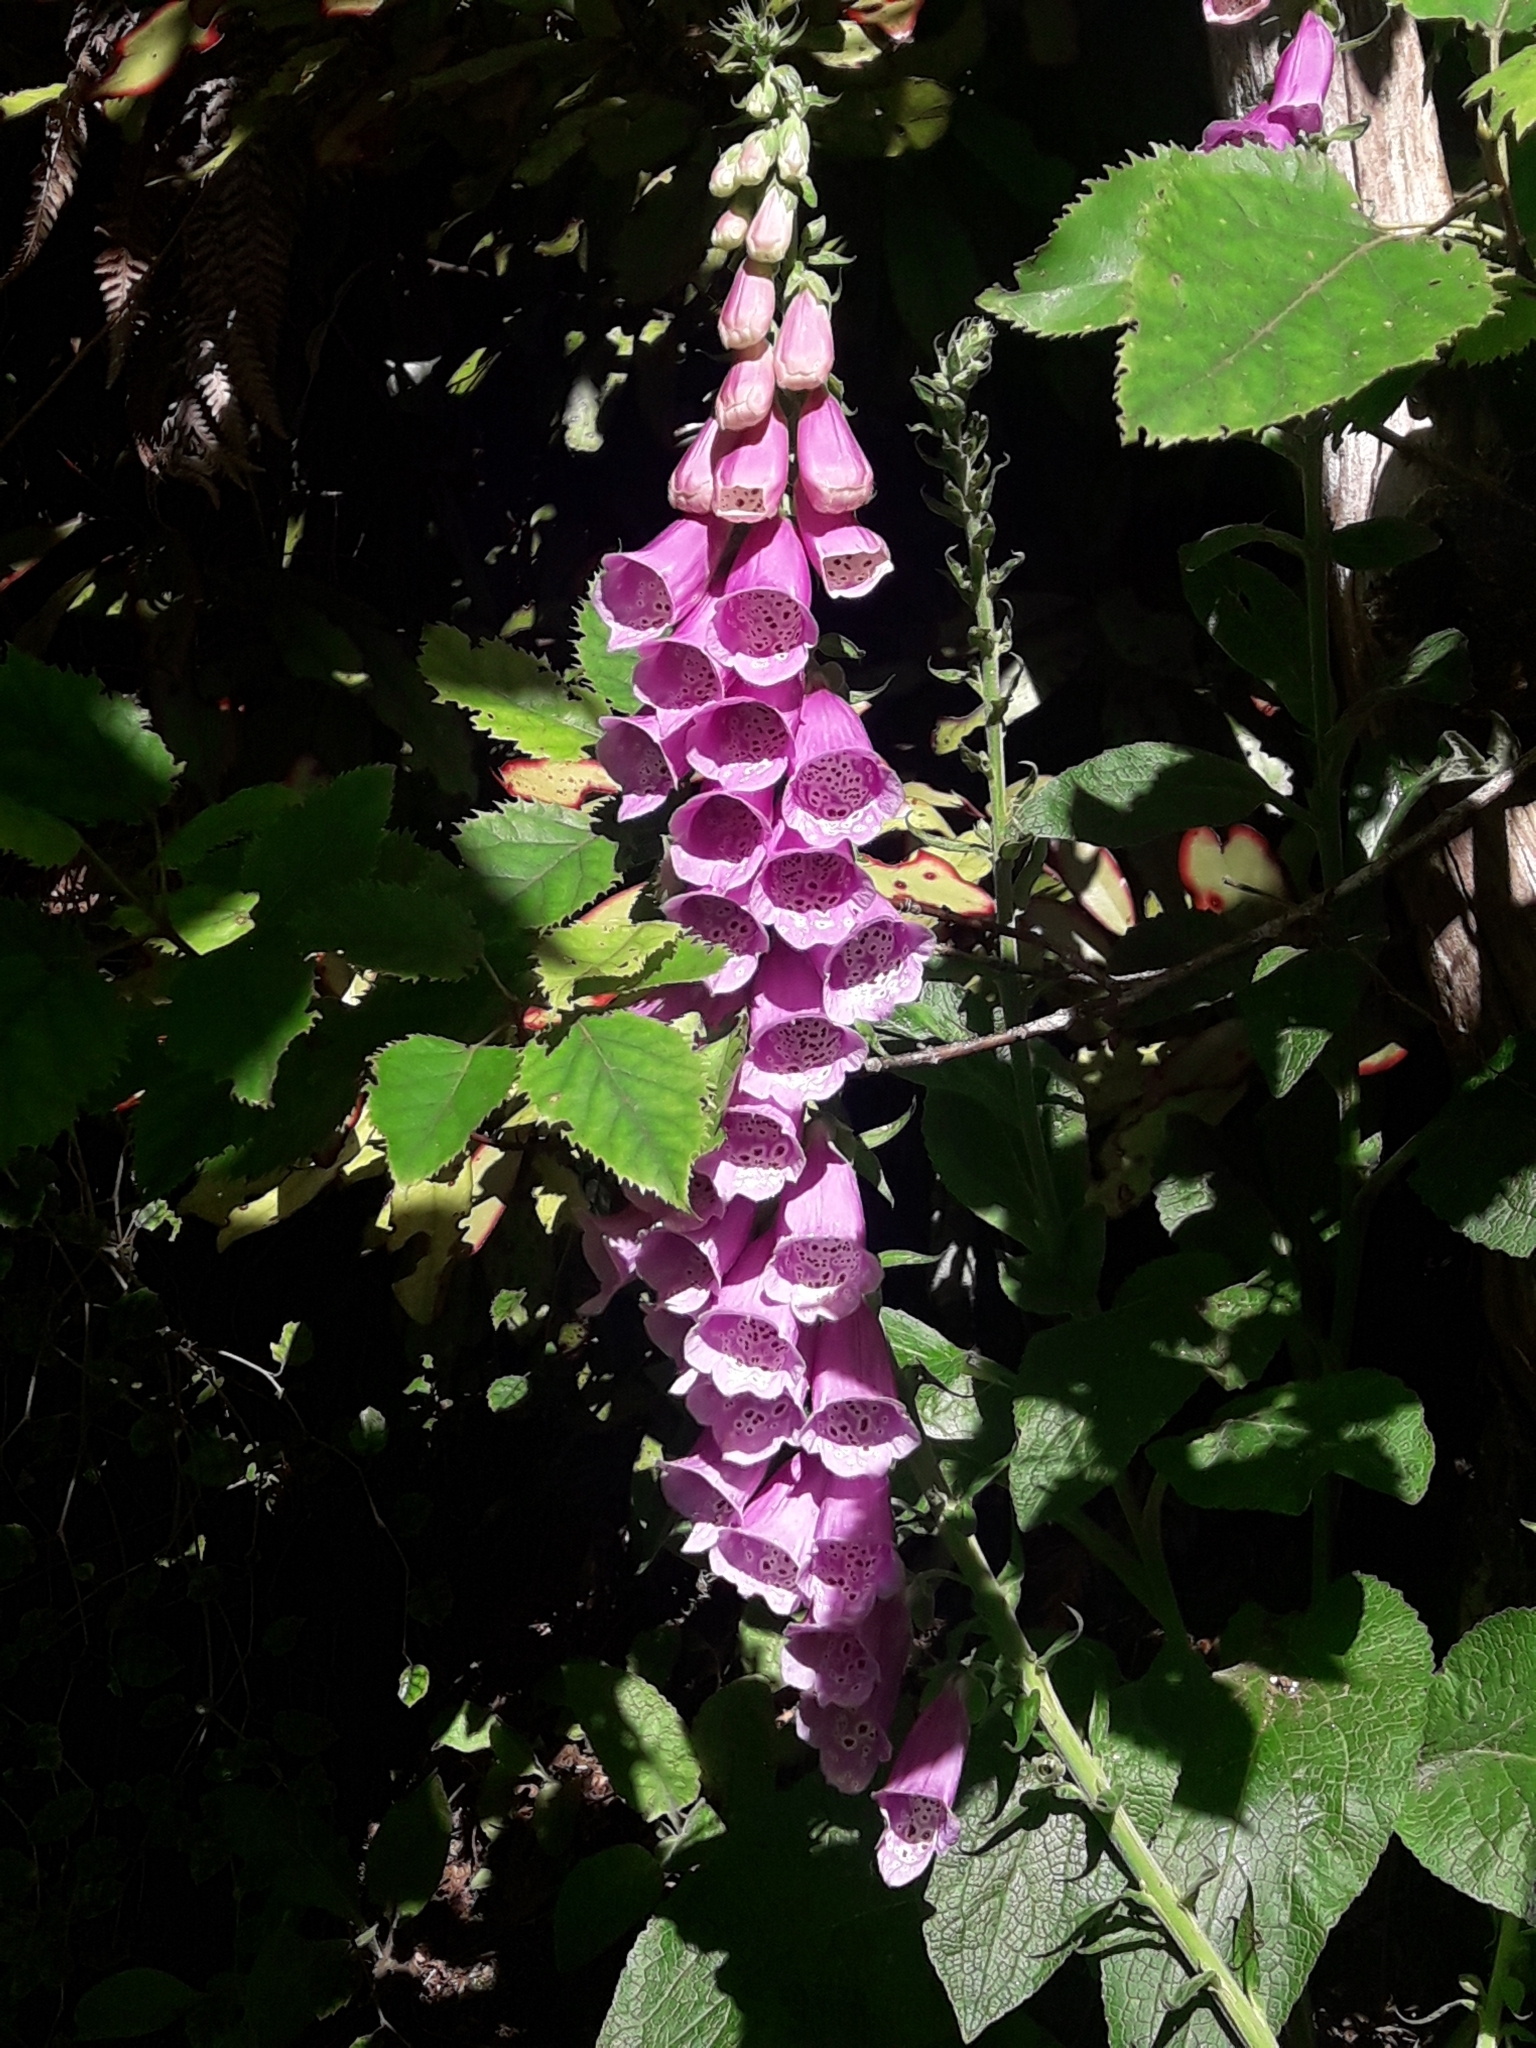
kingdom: Plantae
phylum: Tracheophyta
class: Magnoliopsida
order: Lamiales
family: Plantaginaceae
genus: Digitalis
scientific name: Digitalis purpurea
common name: Foxglove
